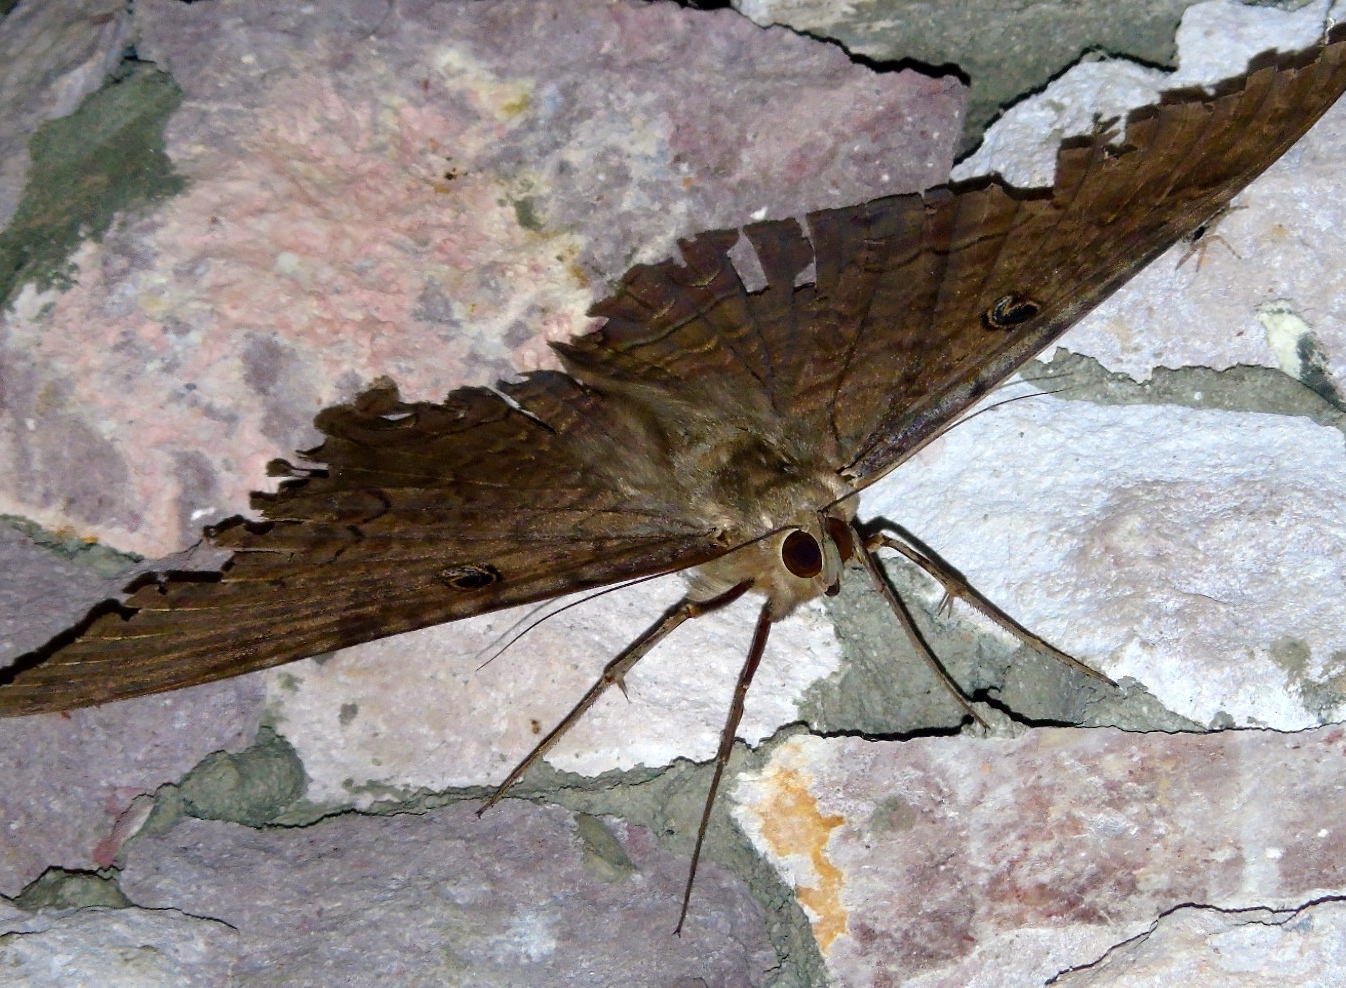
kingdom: Animalia
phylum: Arthropoda
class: Insecta
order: Lepidoptera
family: Erebidae
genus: Ascalapha
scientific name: Ascalapha odorata
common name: Black witch
